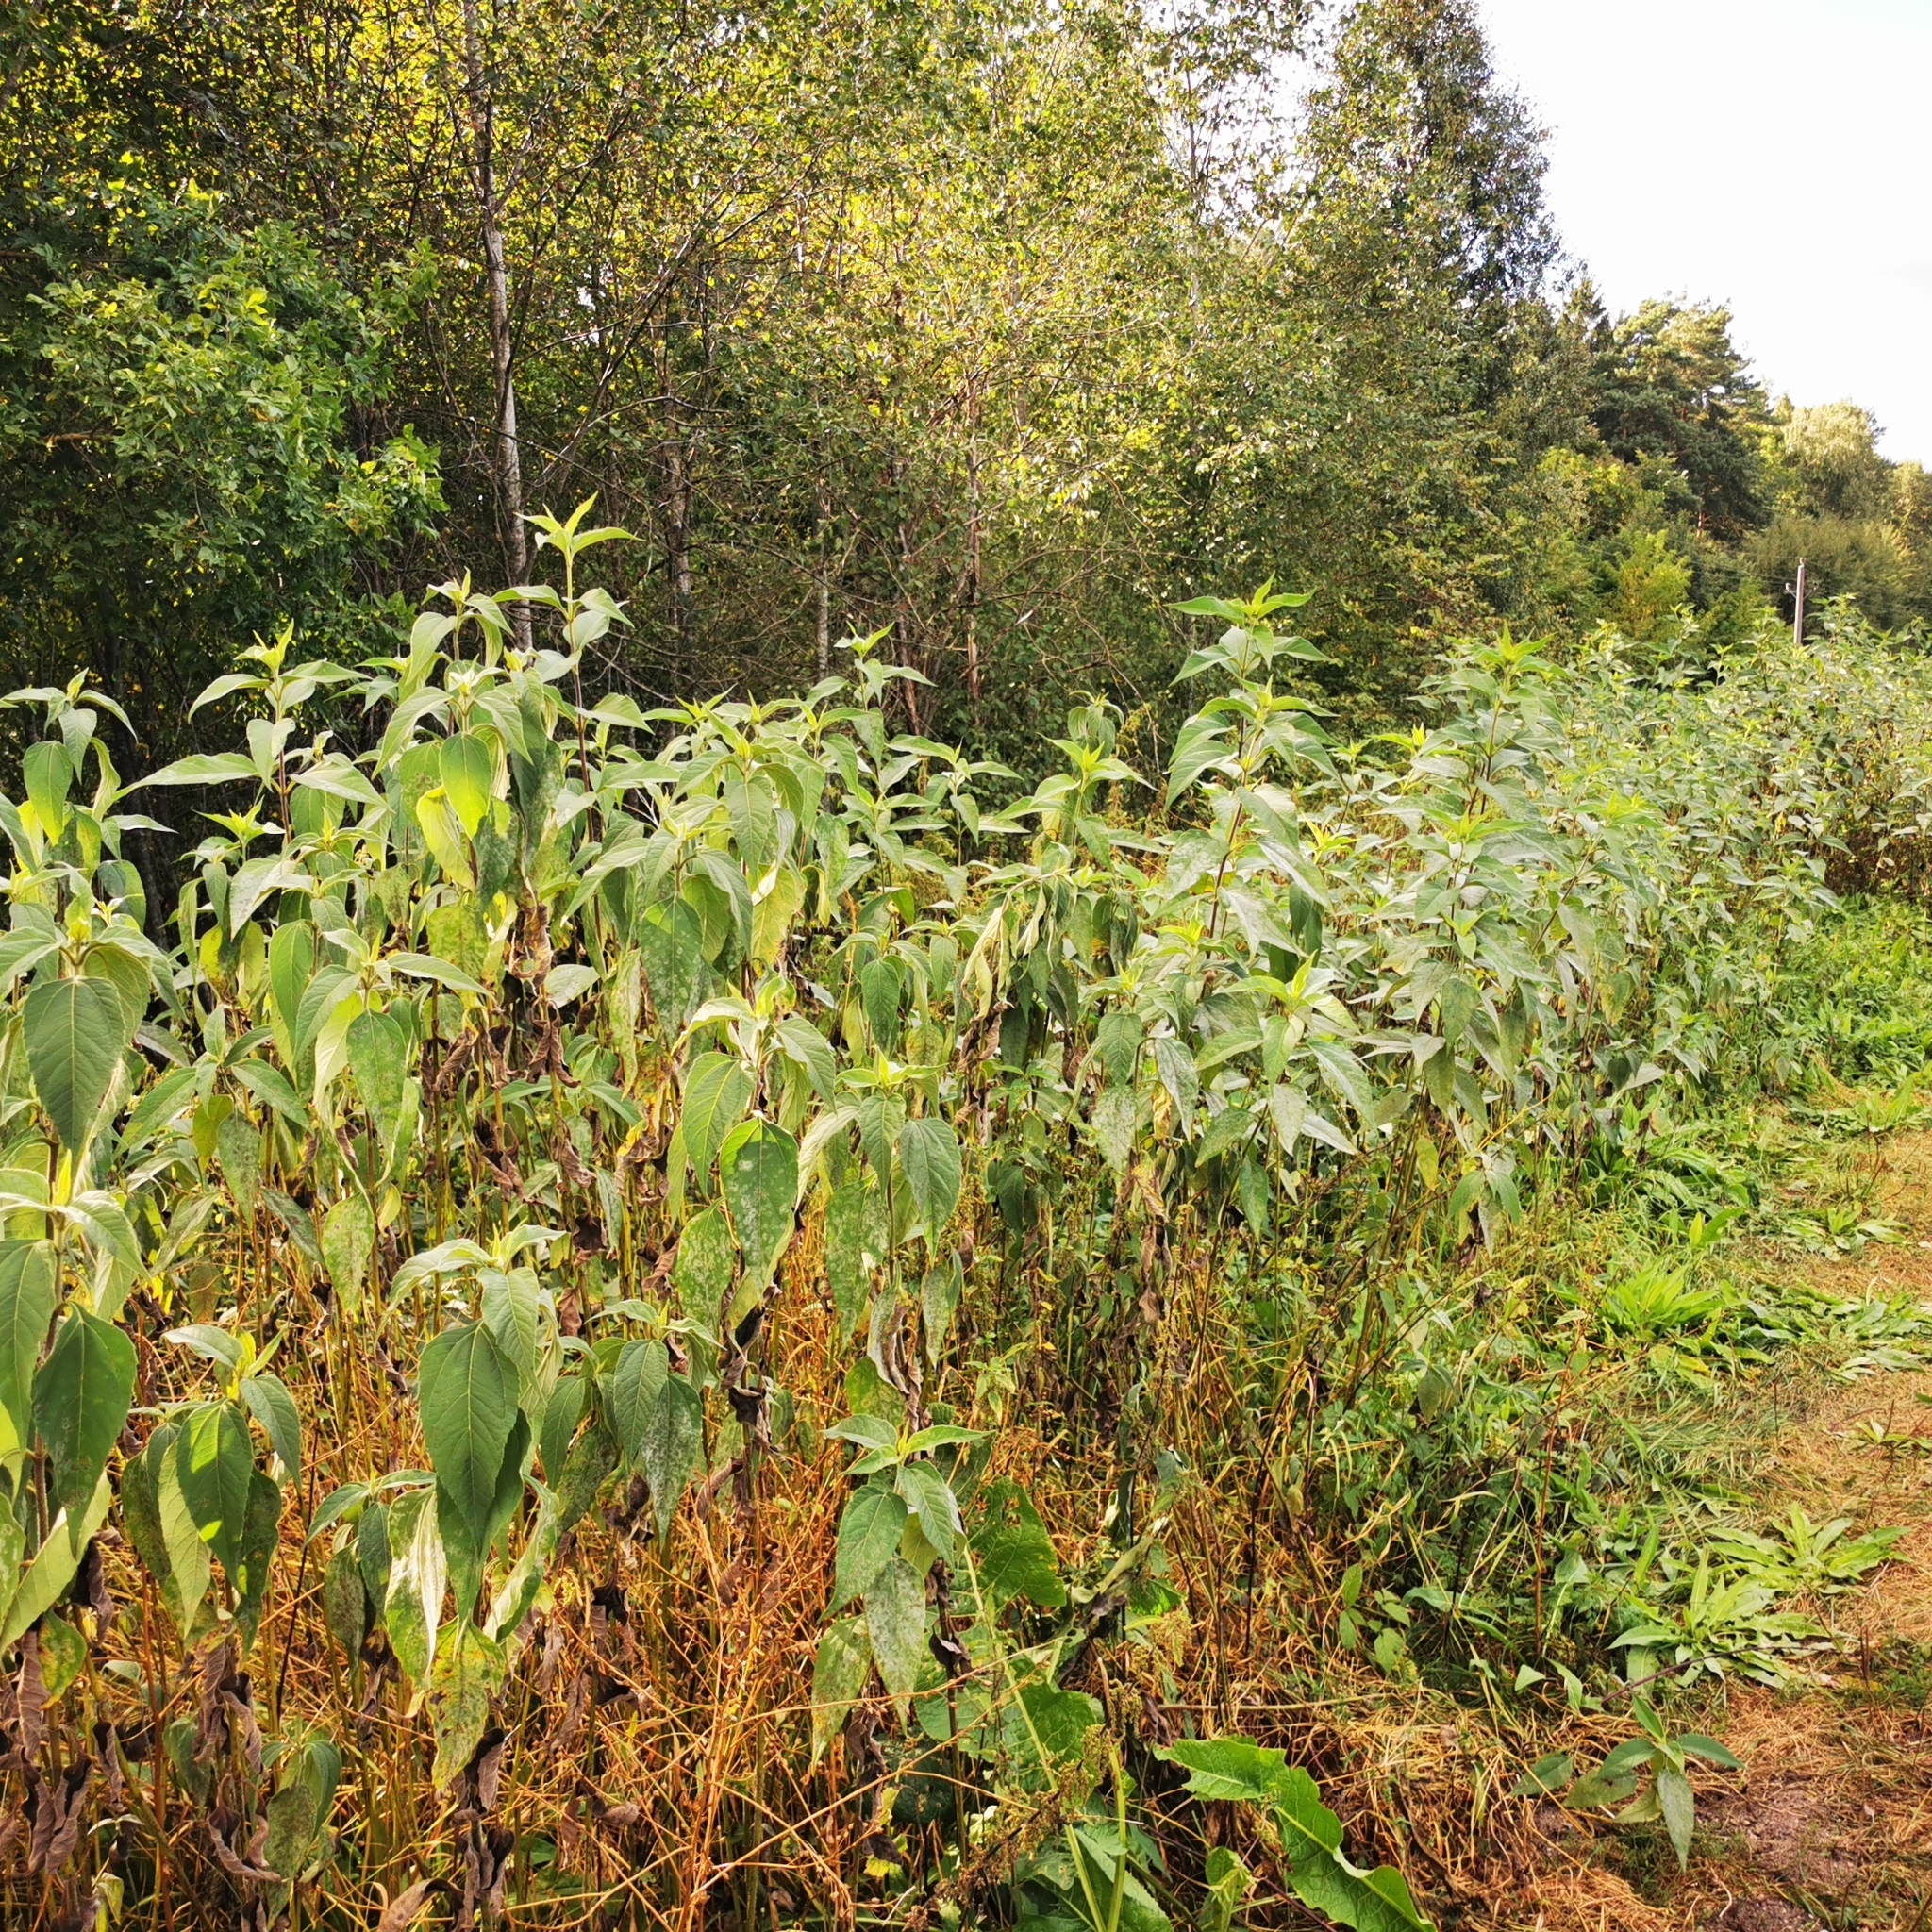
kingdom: Plantae
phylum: Tracheophyta
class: Magnoliopsida
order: Asterales
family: Asteraceae
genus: Helianthus
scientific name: Helianthus tuberosus
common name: Jerusalem artichoke
